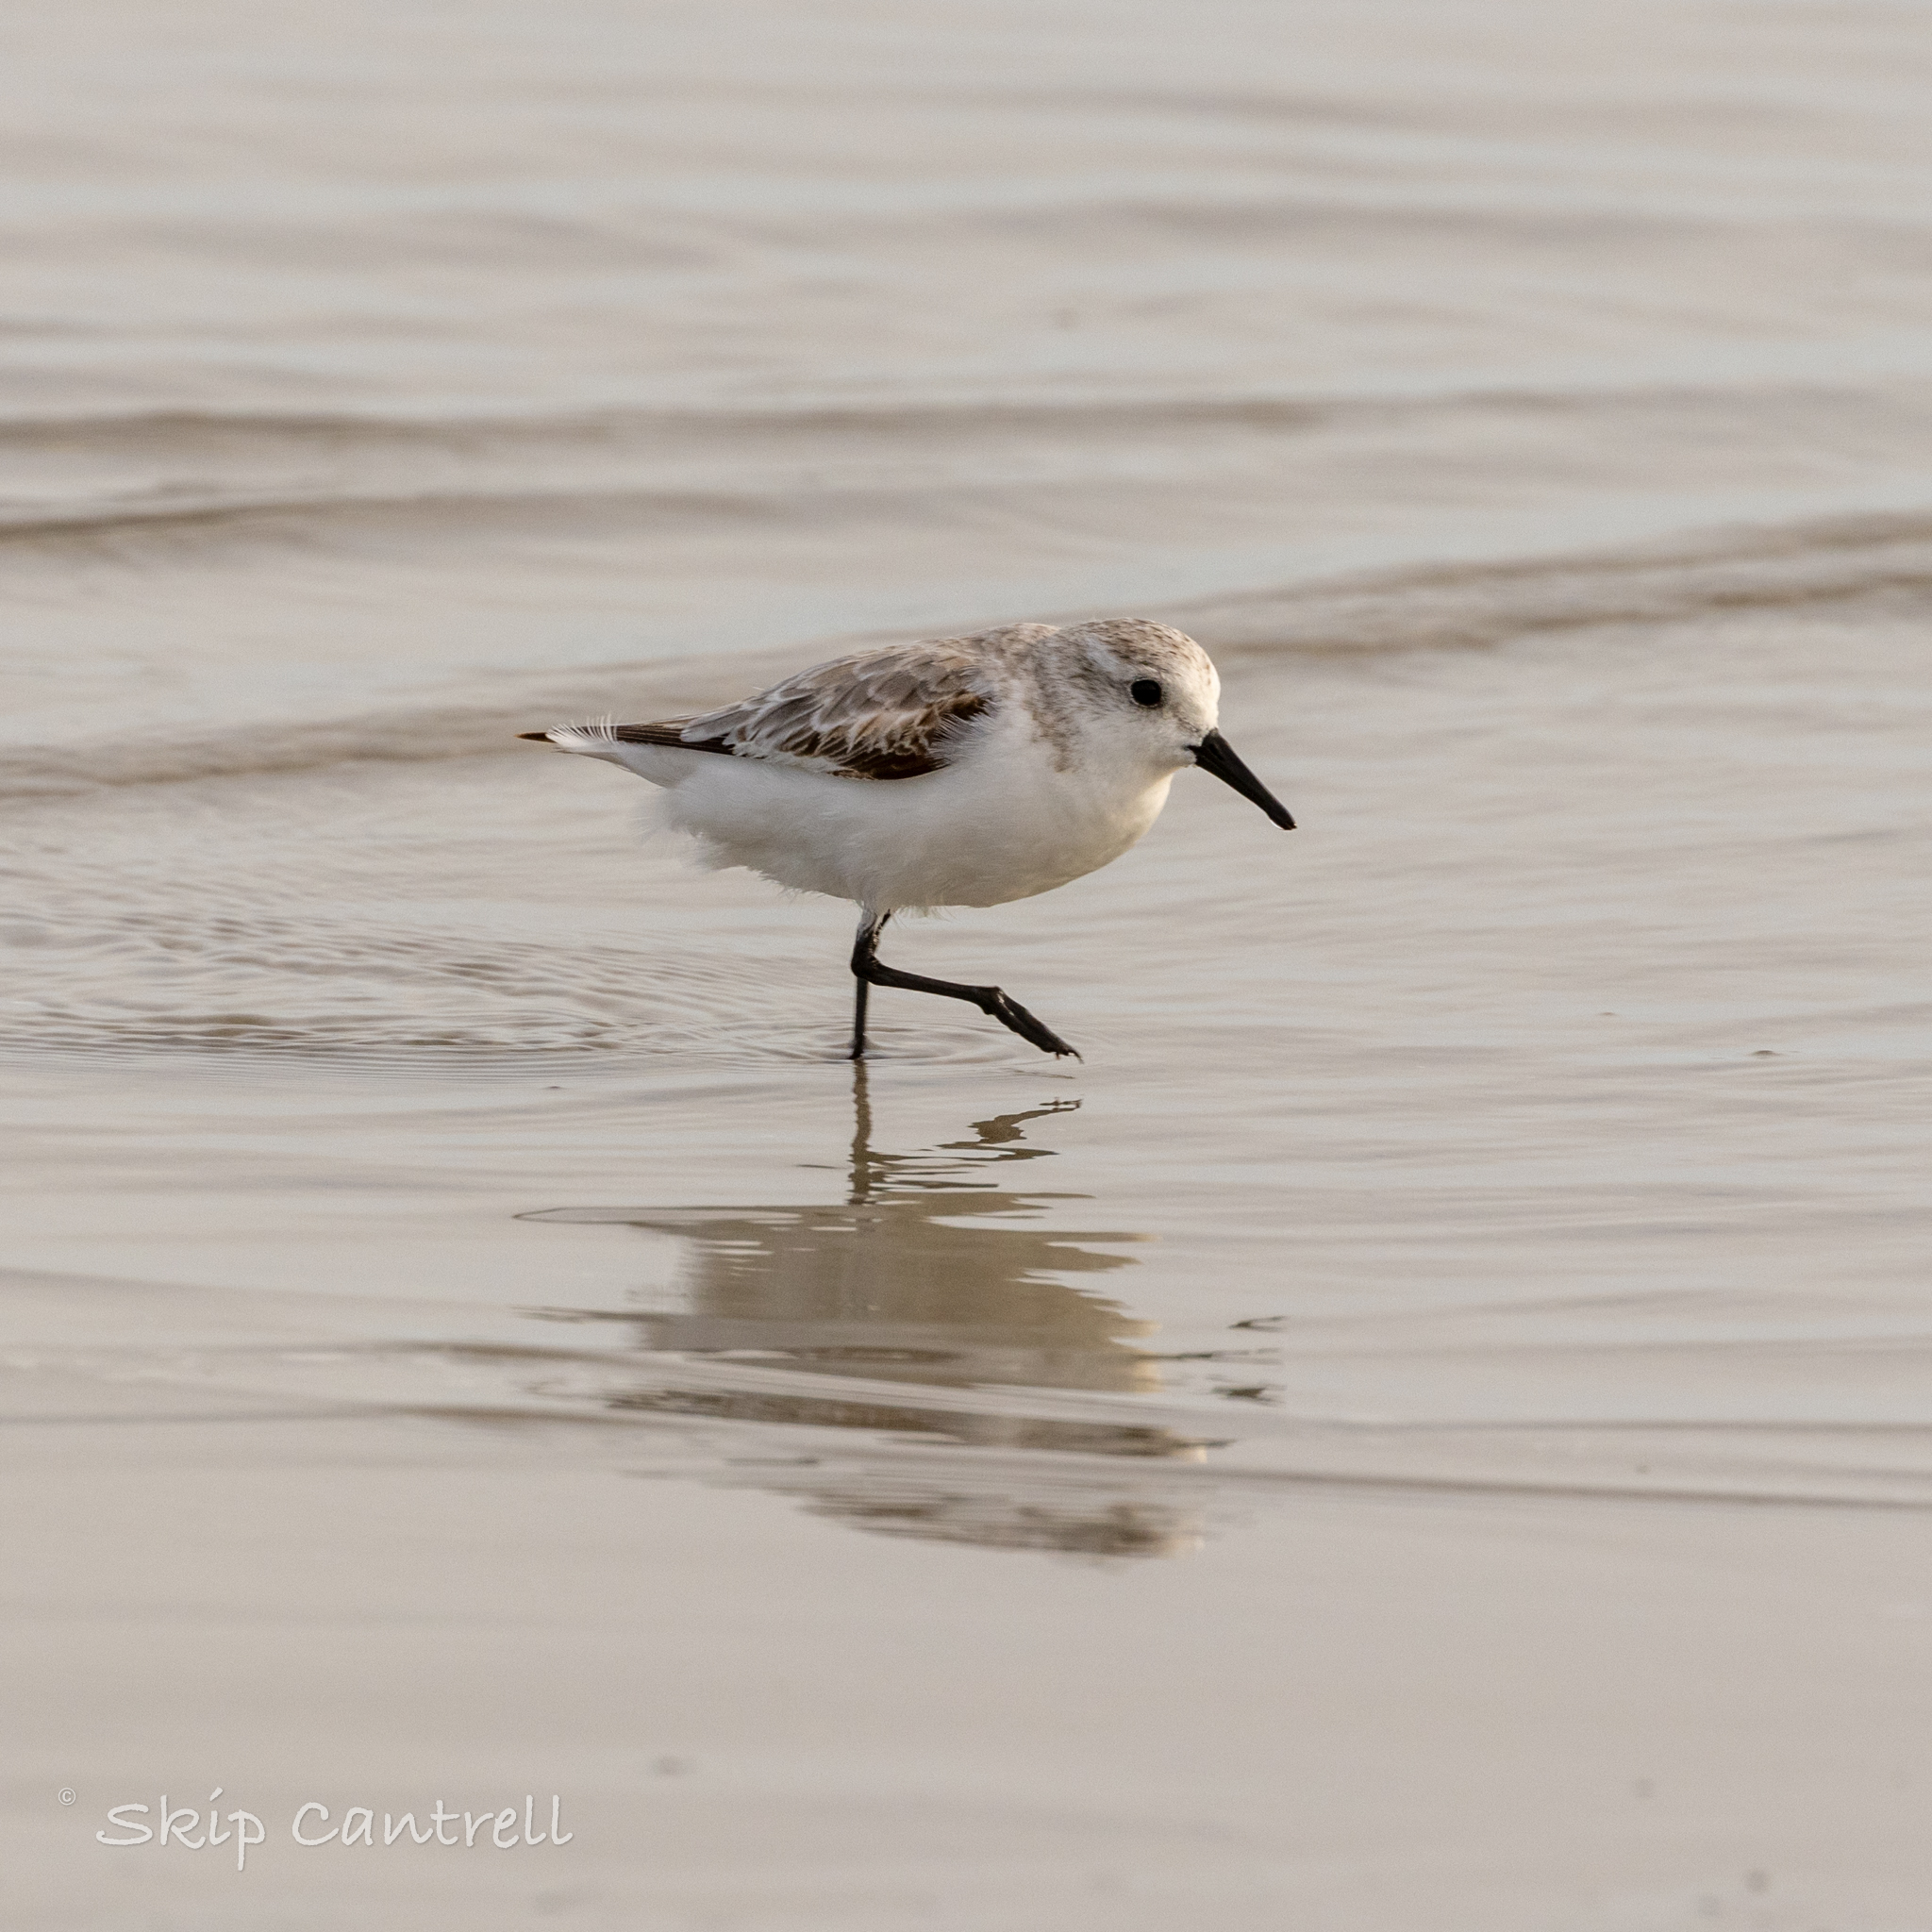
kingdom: Animalia
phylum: Chordata
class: Aves
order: Charadriiformes
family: Scolopacidae
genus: Calidris
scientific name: Calidris alba
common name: Sanderling
